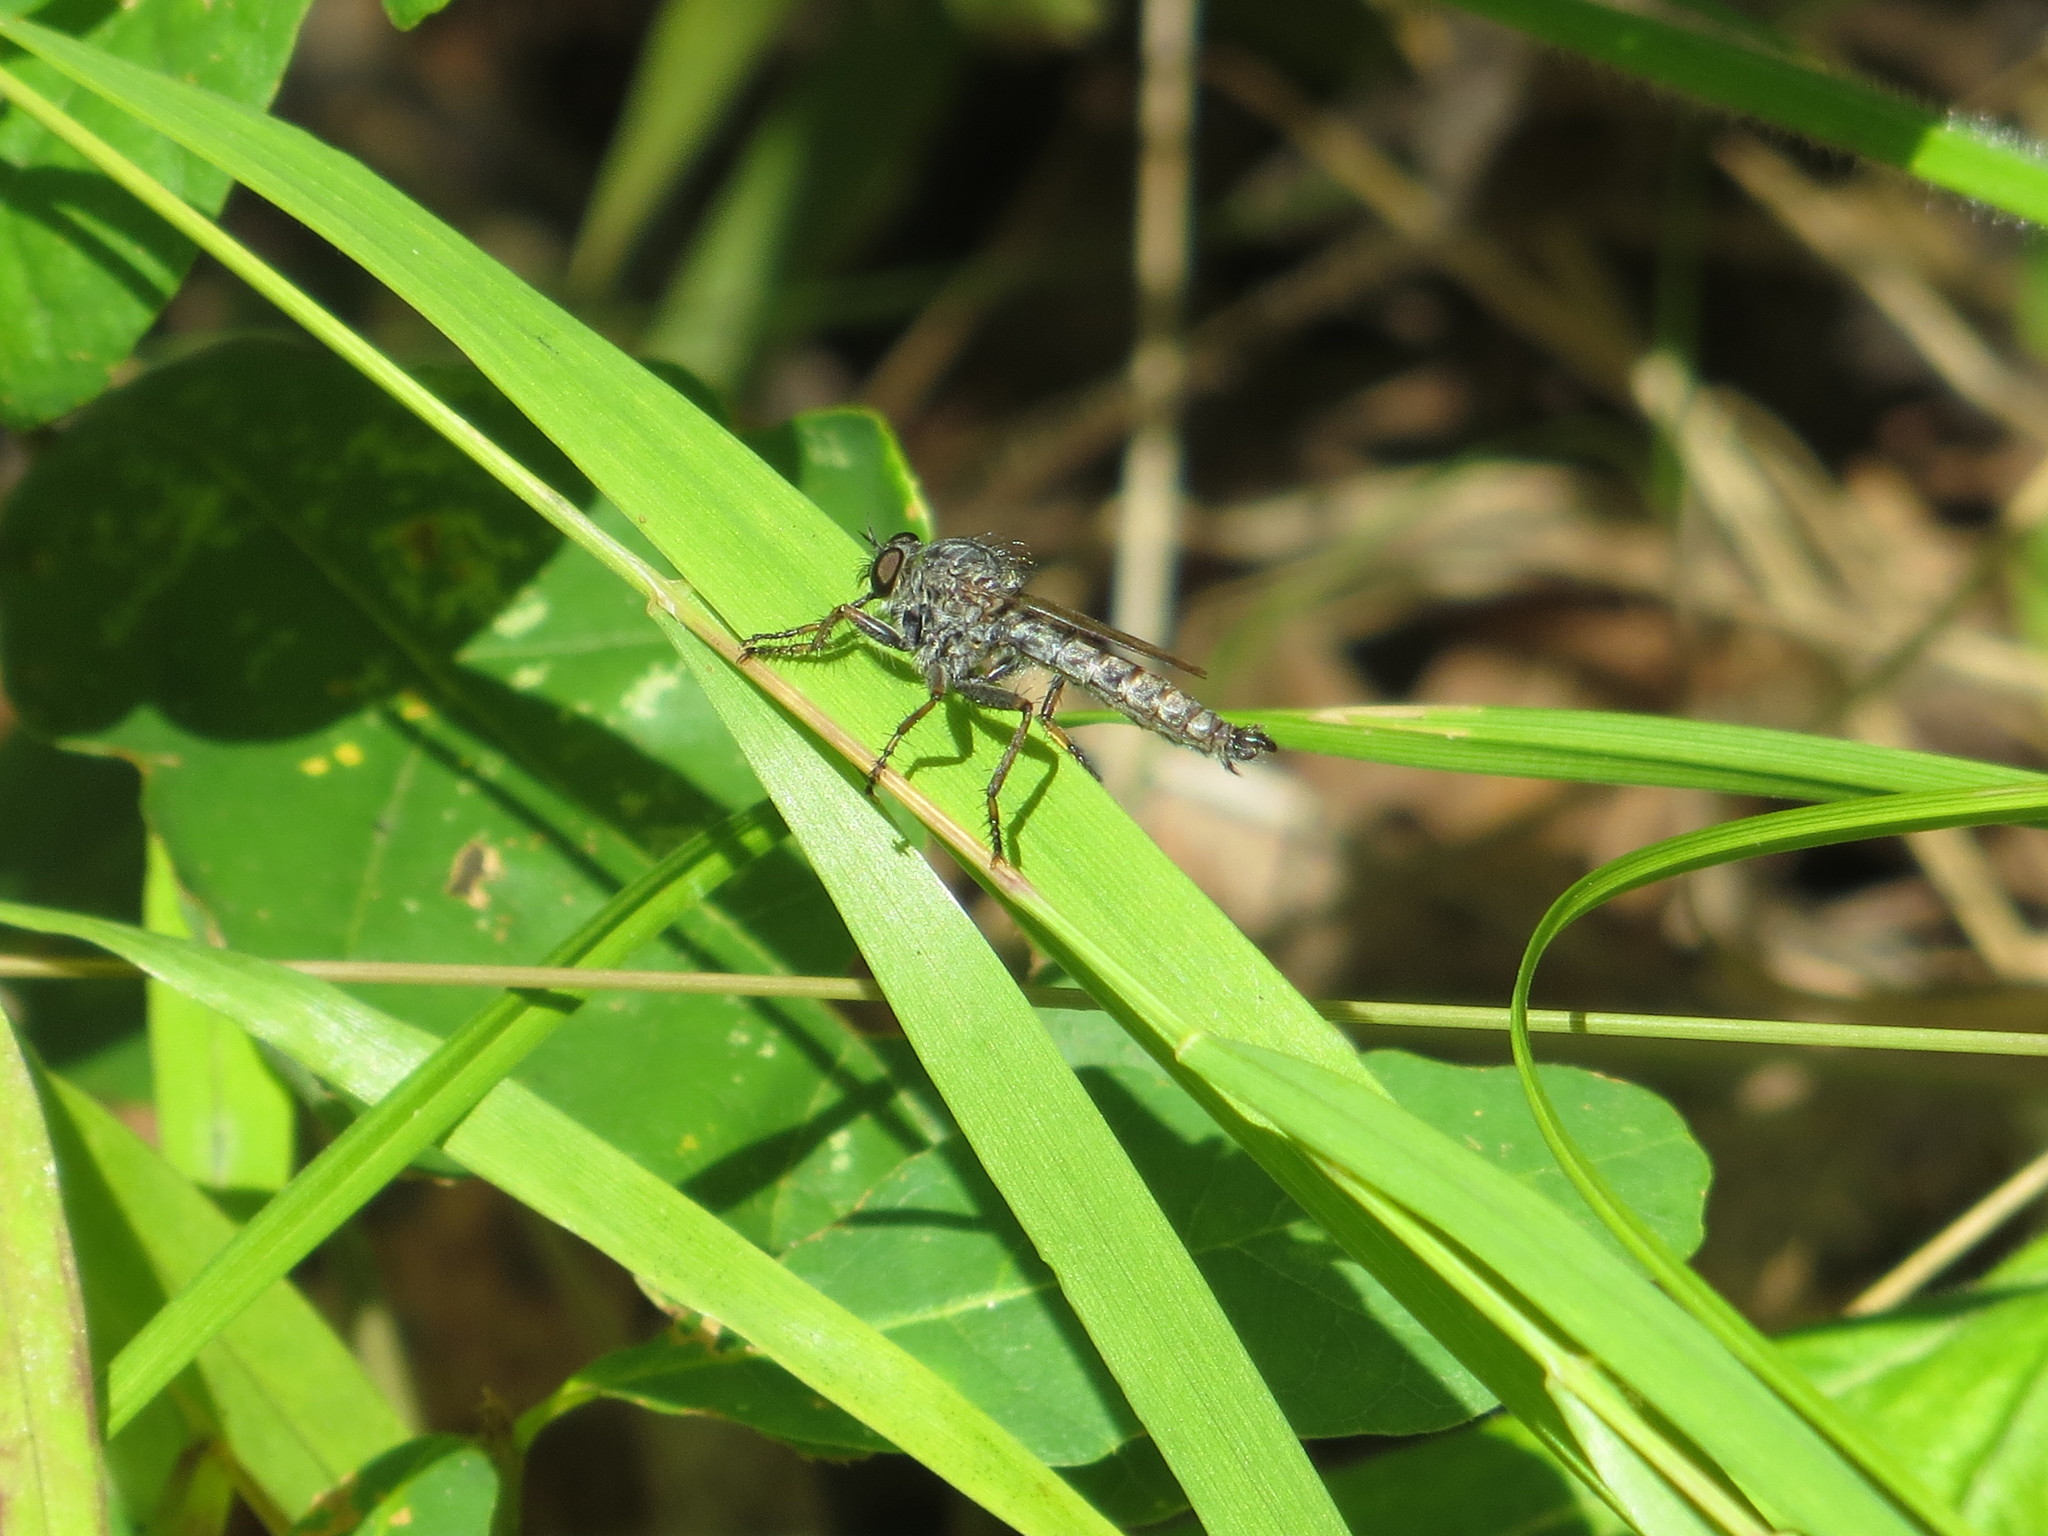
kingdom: Animalia
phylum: Arthropoda
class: Insecta
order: Diptera
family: Asilidae
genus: Machimus
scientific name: Machimus atricapillus
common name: Kite-tailed robberfly
